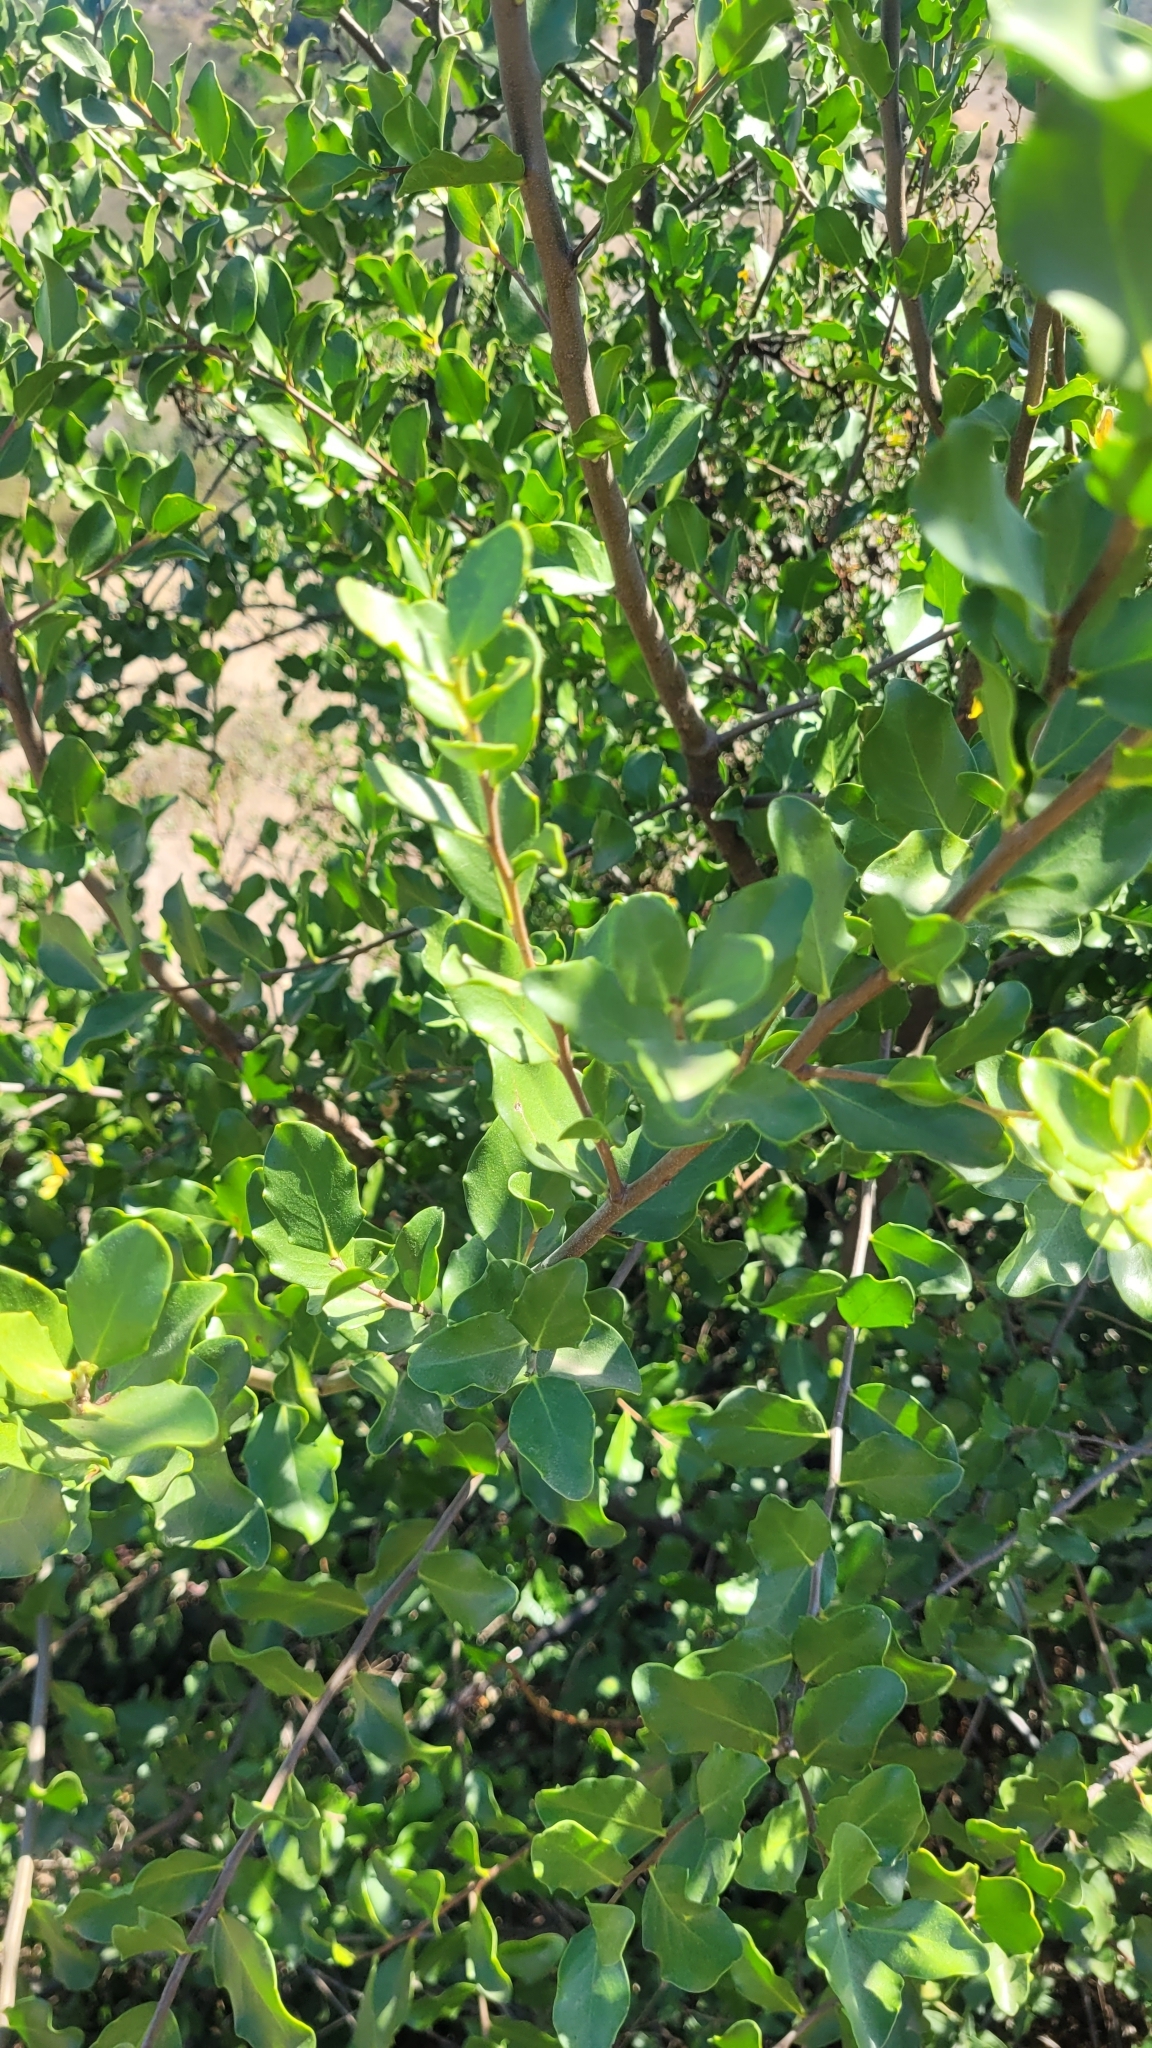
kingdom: Plantae
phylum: Tracheophyta
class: Magnoliopsida
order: Fabales
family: Quillajaceae
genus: Quillaja
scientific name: Quillaja saponaria
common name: Murillo's-bark
